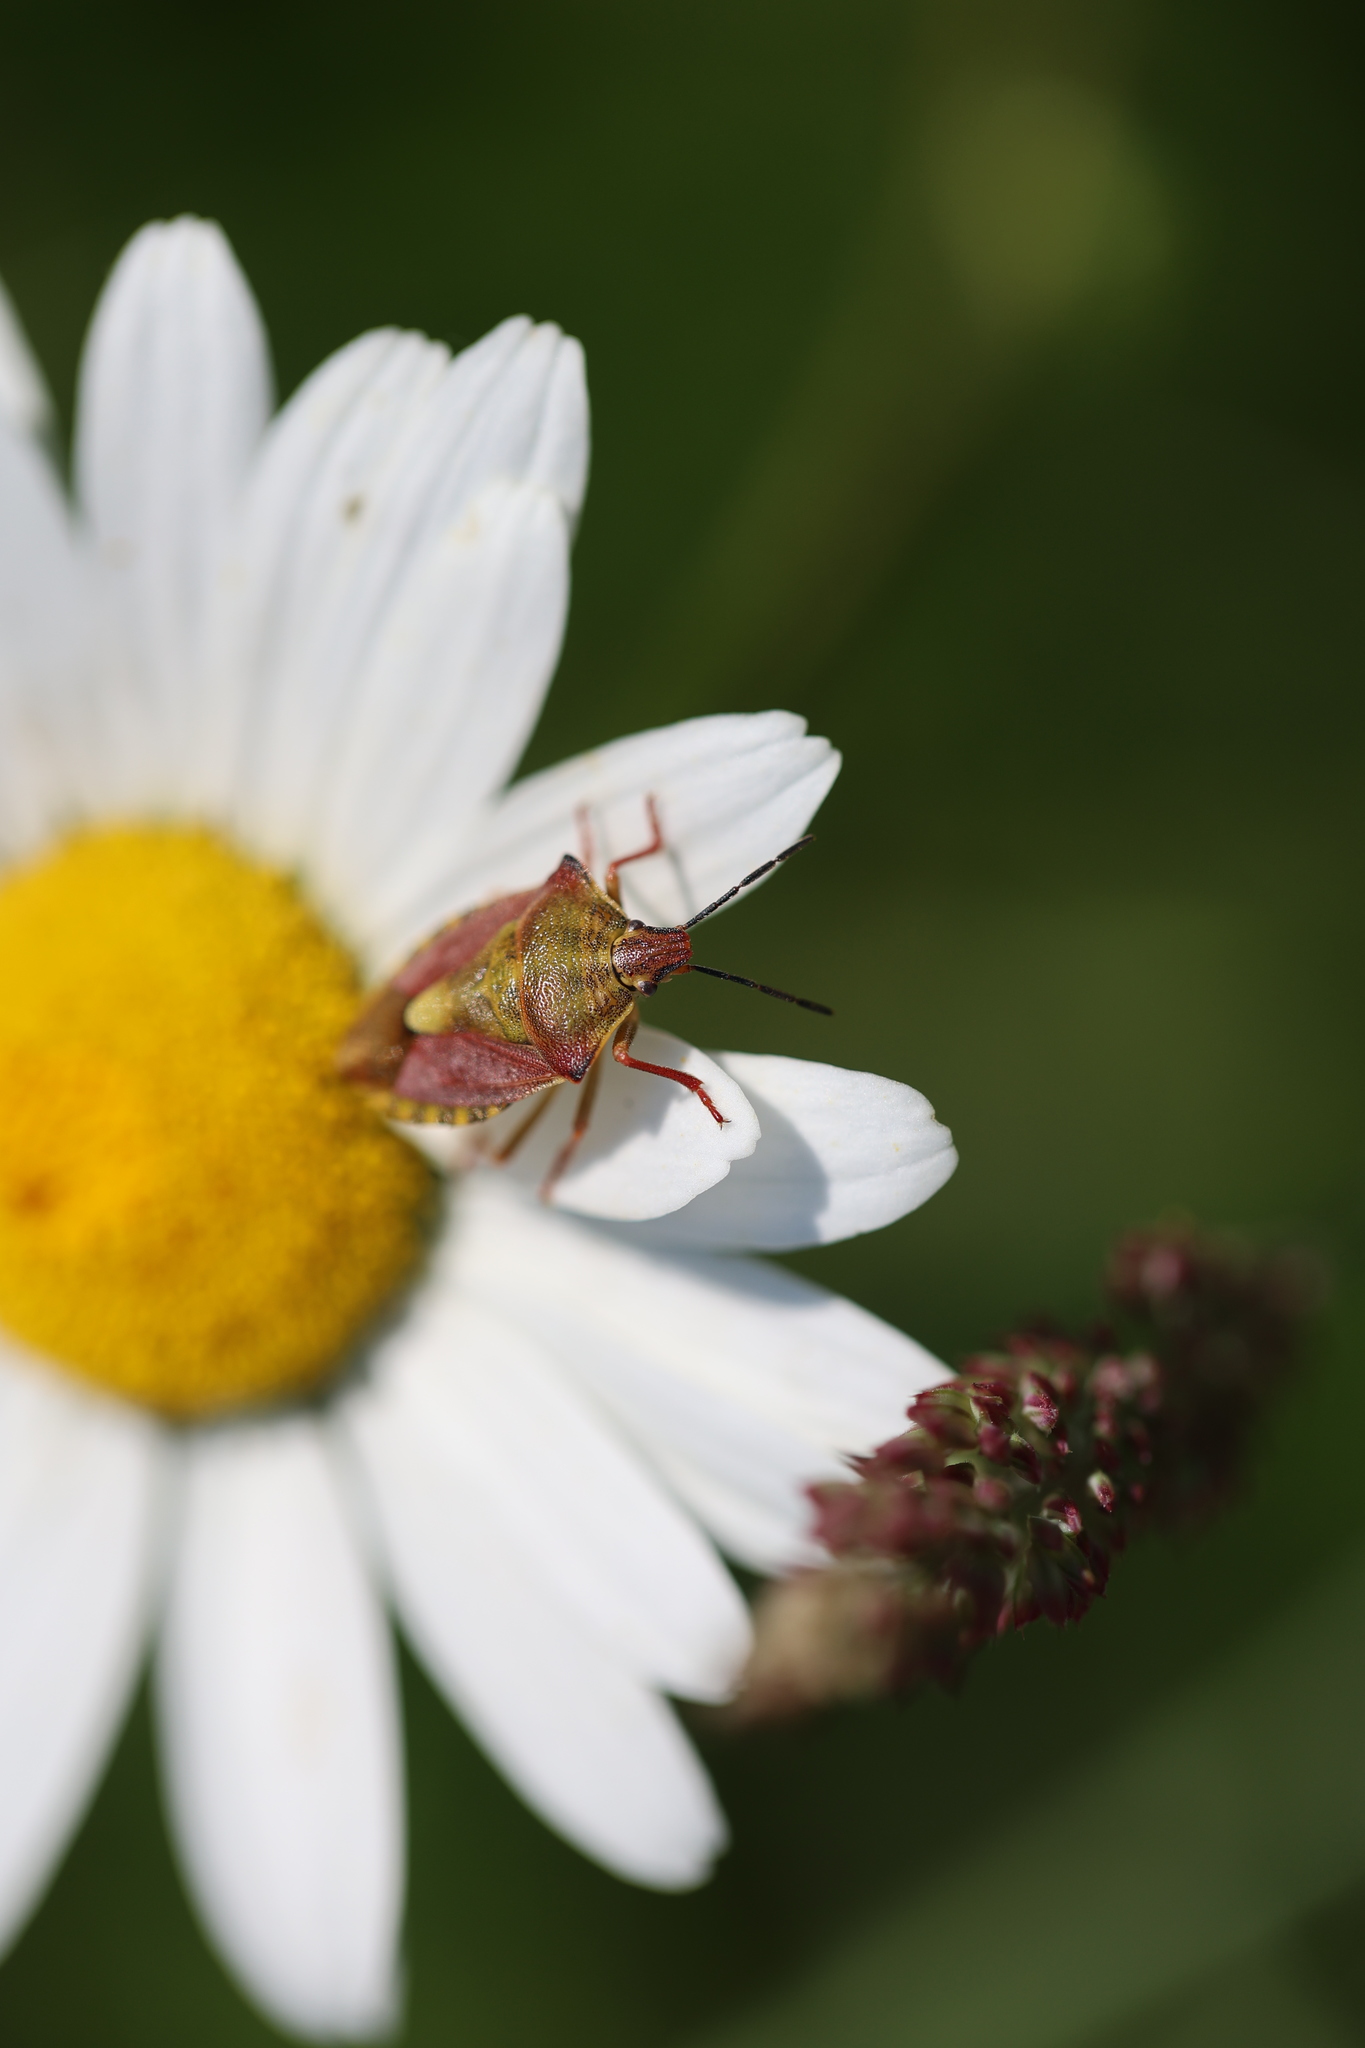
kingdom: Animalia
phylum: Arthropoda
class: Insecta
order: Hemiptera
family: Pentatomidae
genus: Carpocoris
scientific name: Carpocoris purpureipennis
